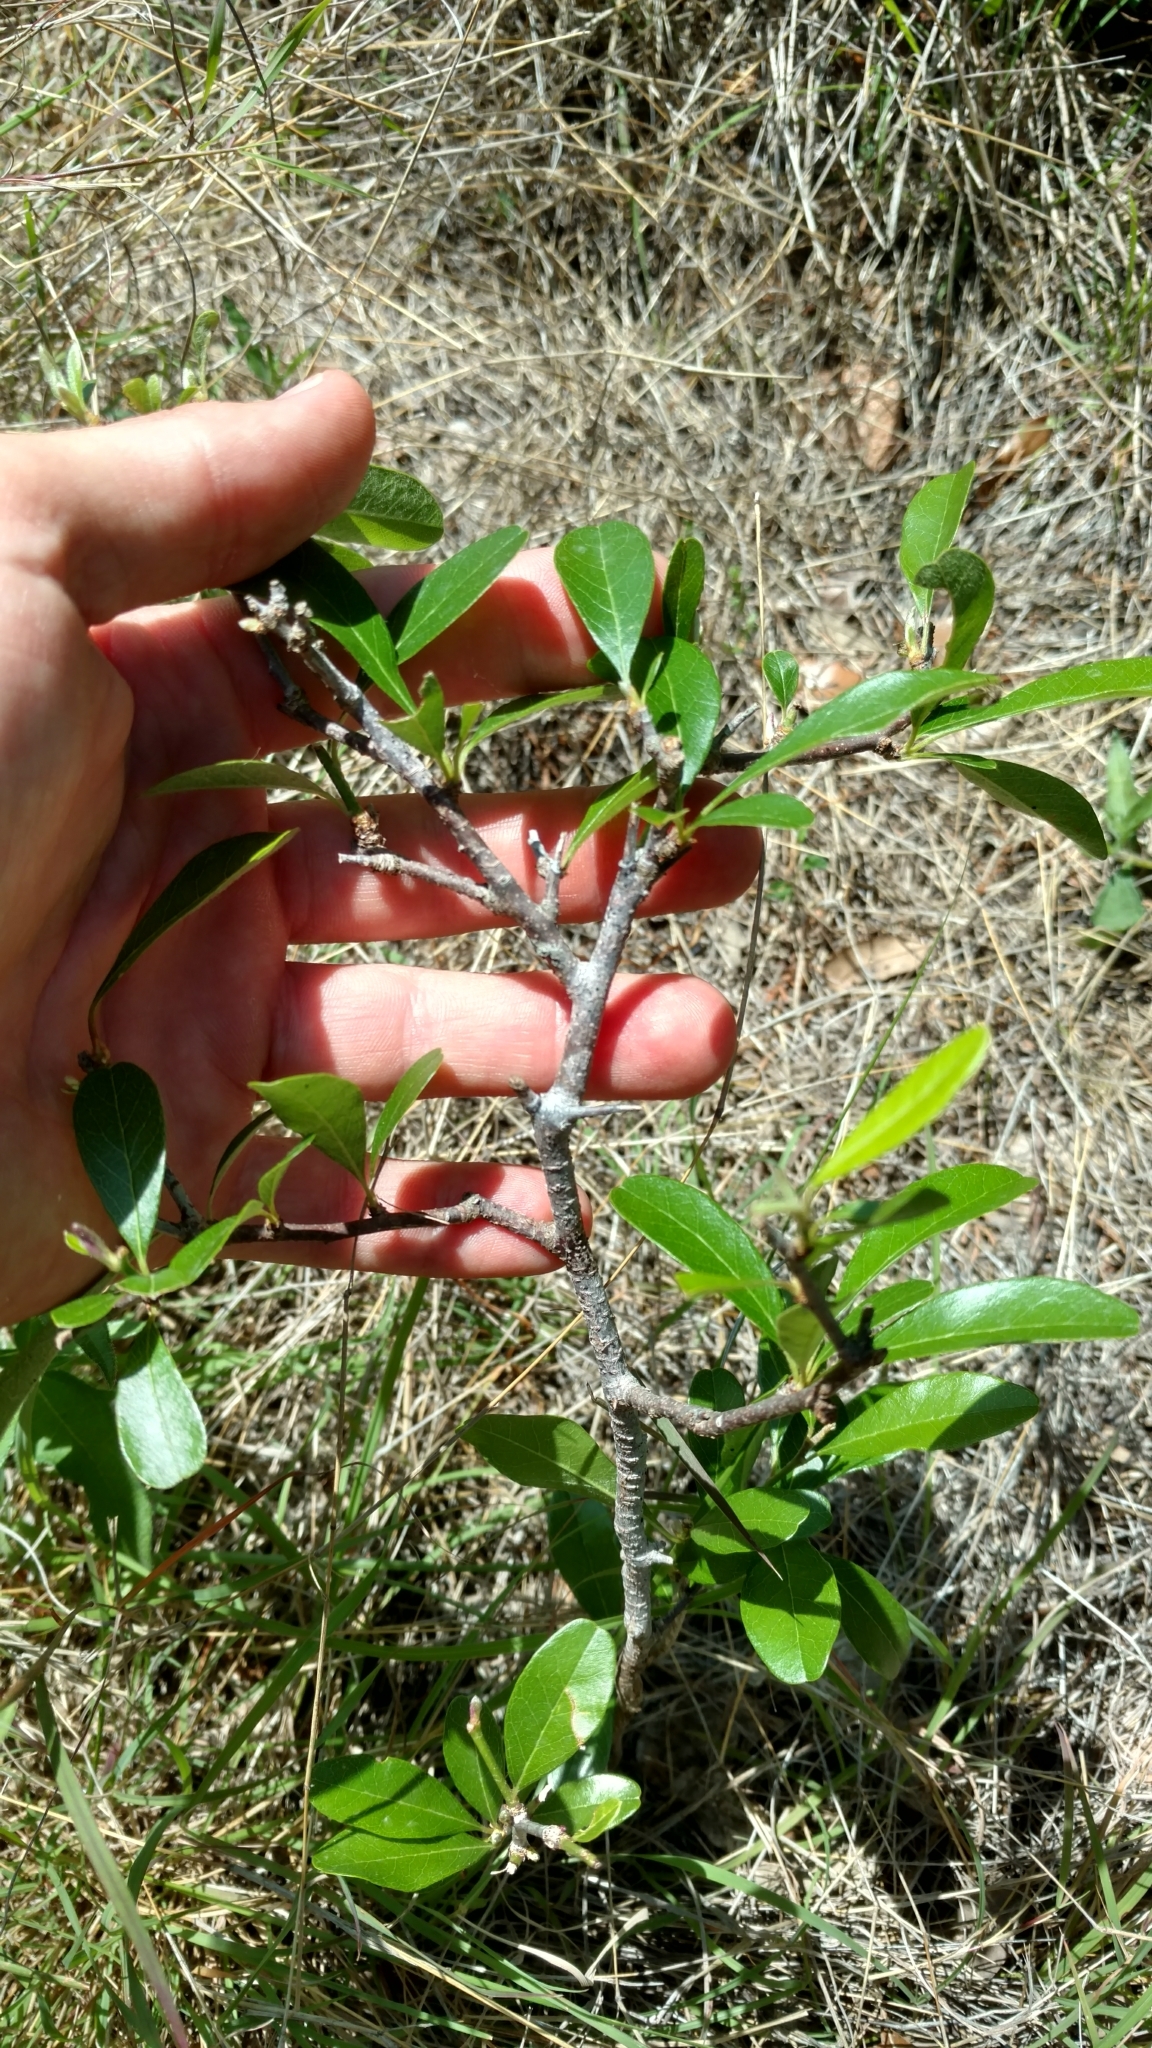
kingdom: Plantae
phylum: Tracheophyta
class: Magnoliopsida
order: Ericales
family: Sapotaceae
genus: Sideroxylon
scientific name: Sideroxylon lanuginosum
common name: Chittamwood
